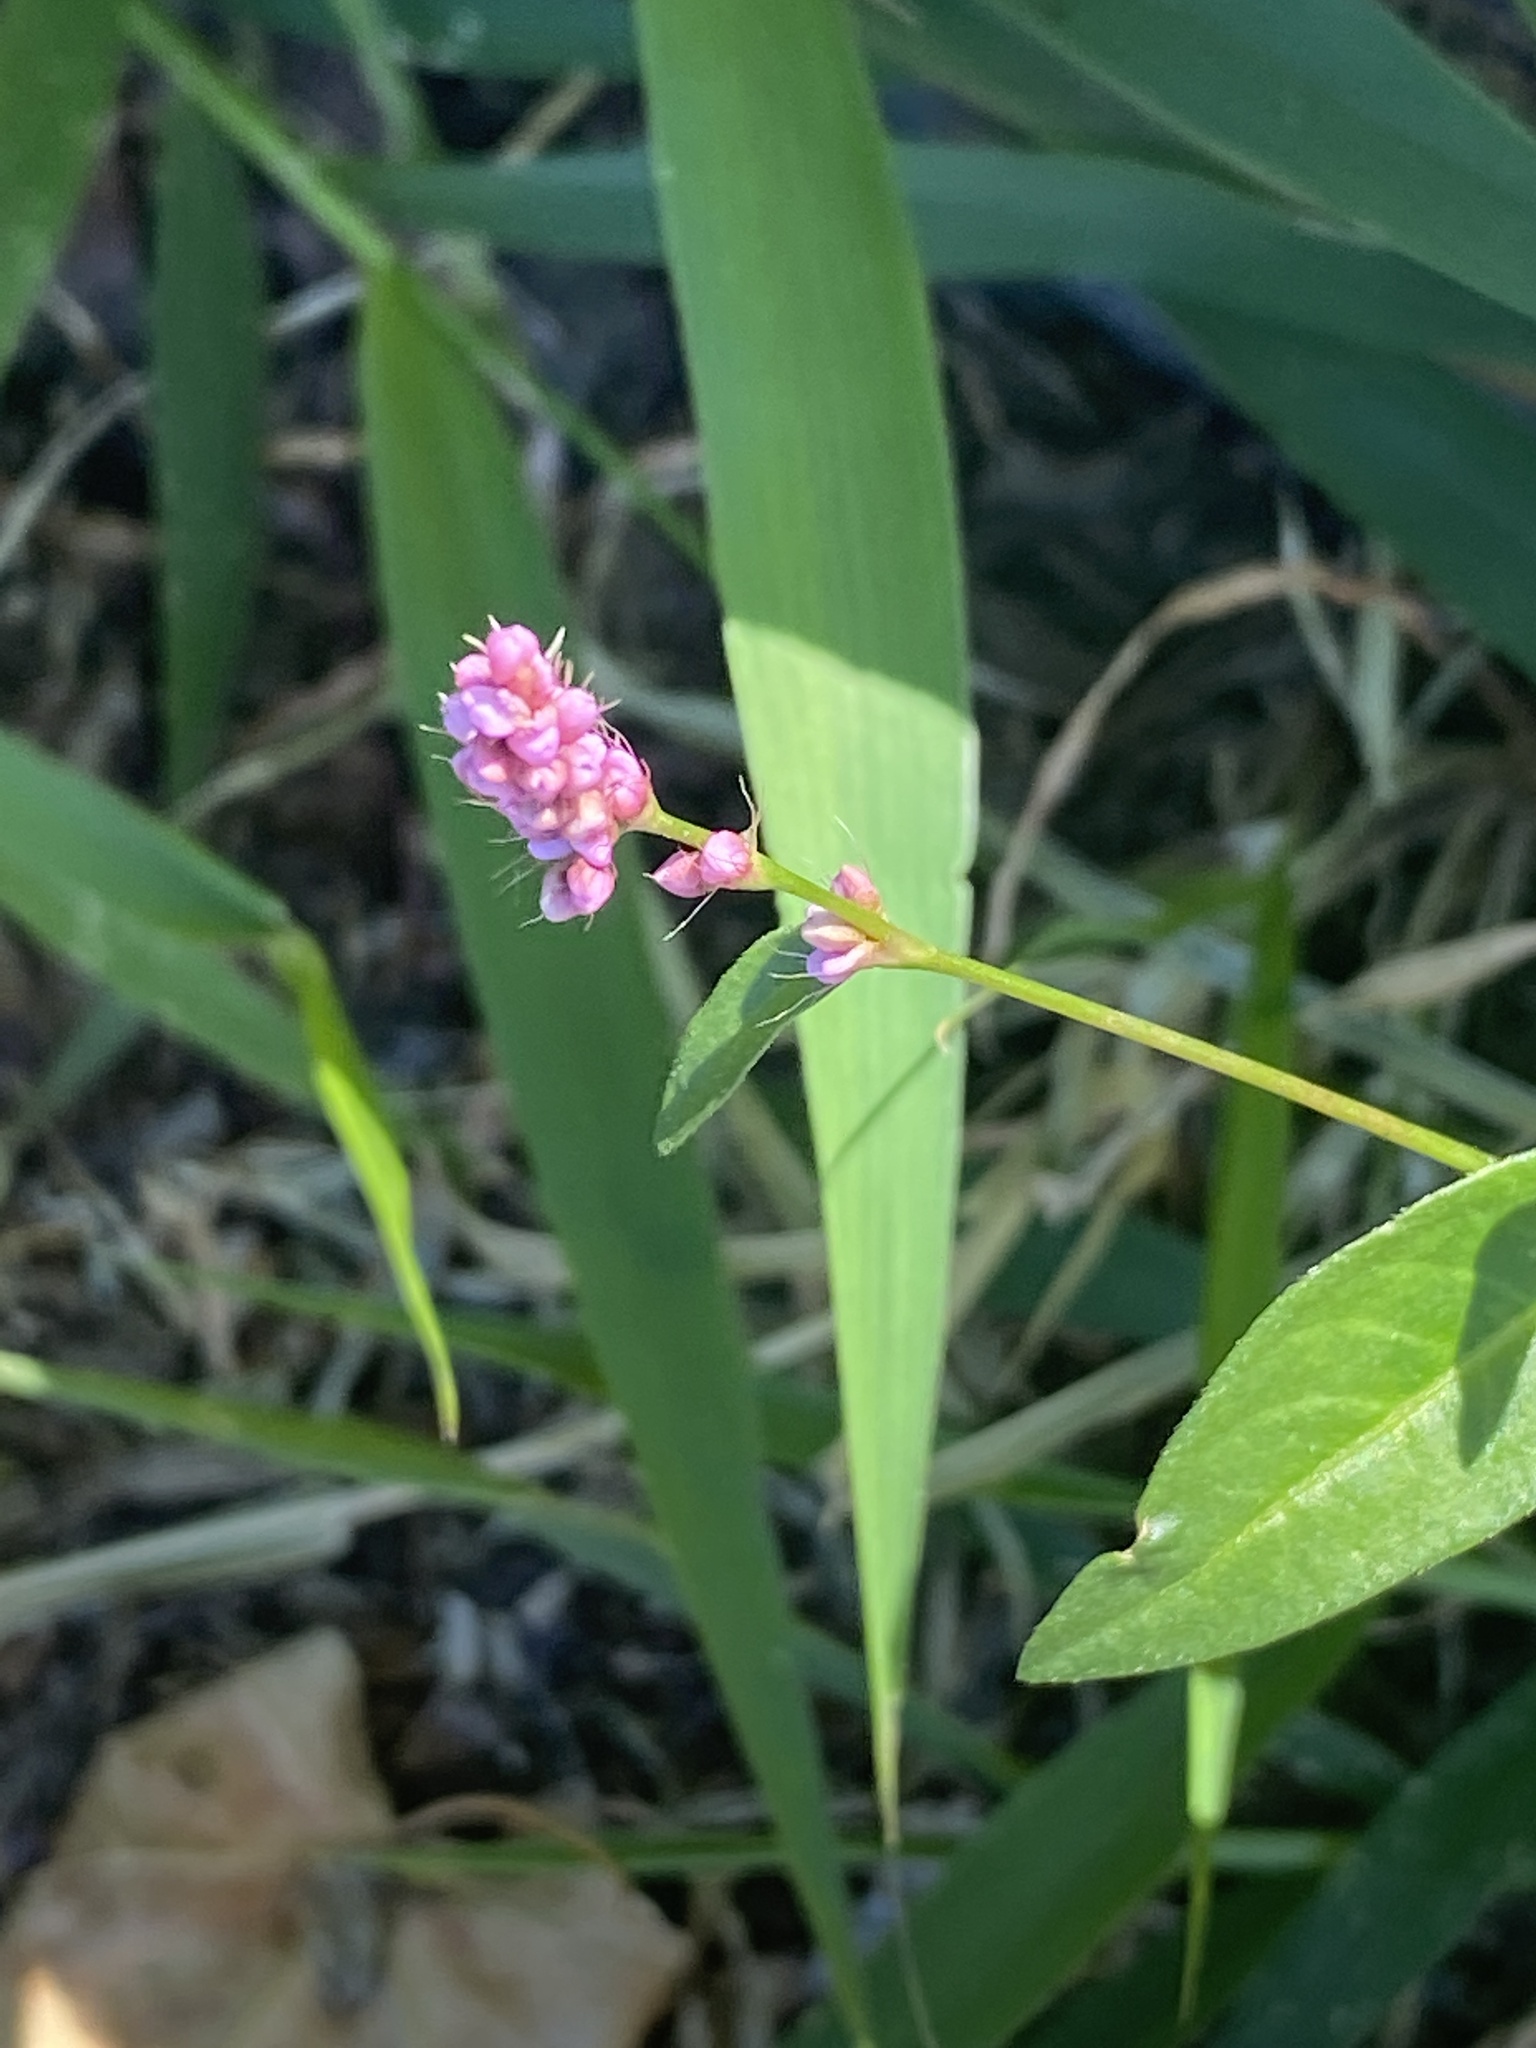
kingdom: Plantae
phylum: Tracheophyta
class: Magnoliopsida
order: Caryophyllales
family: Polygonaceae
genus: Persicaria
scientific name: Persicaria longiseta
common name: Bristly lady's-thumb
